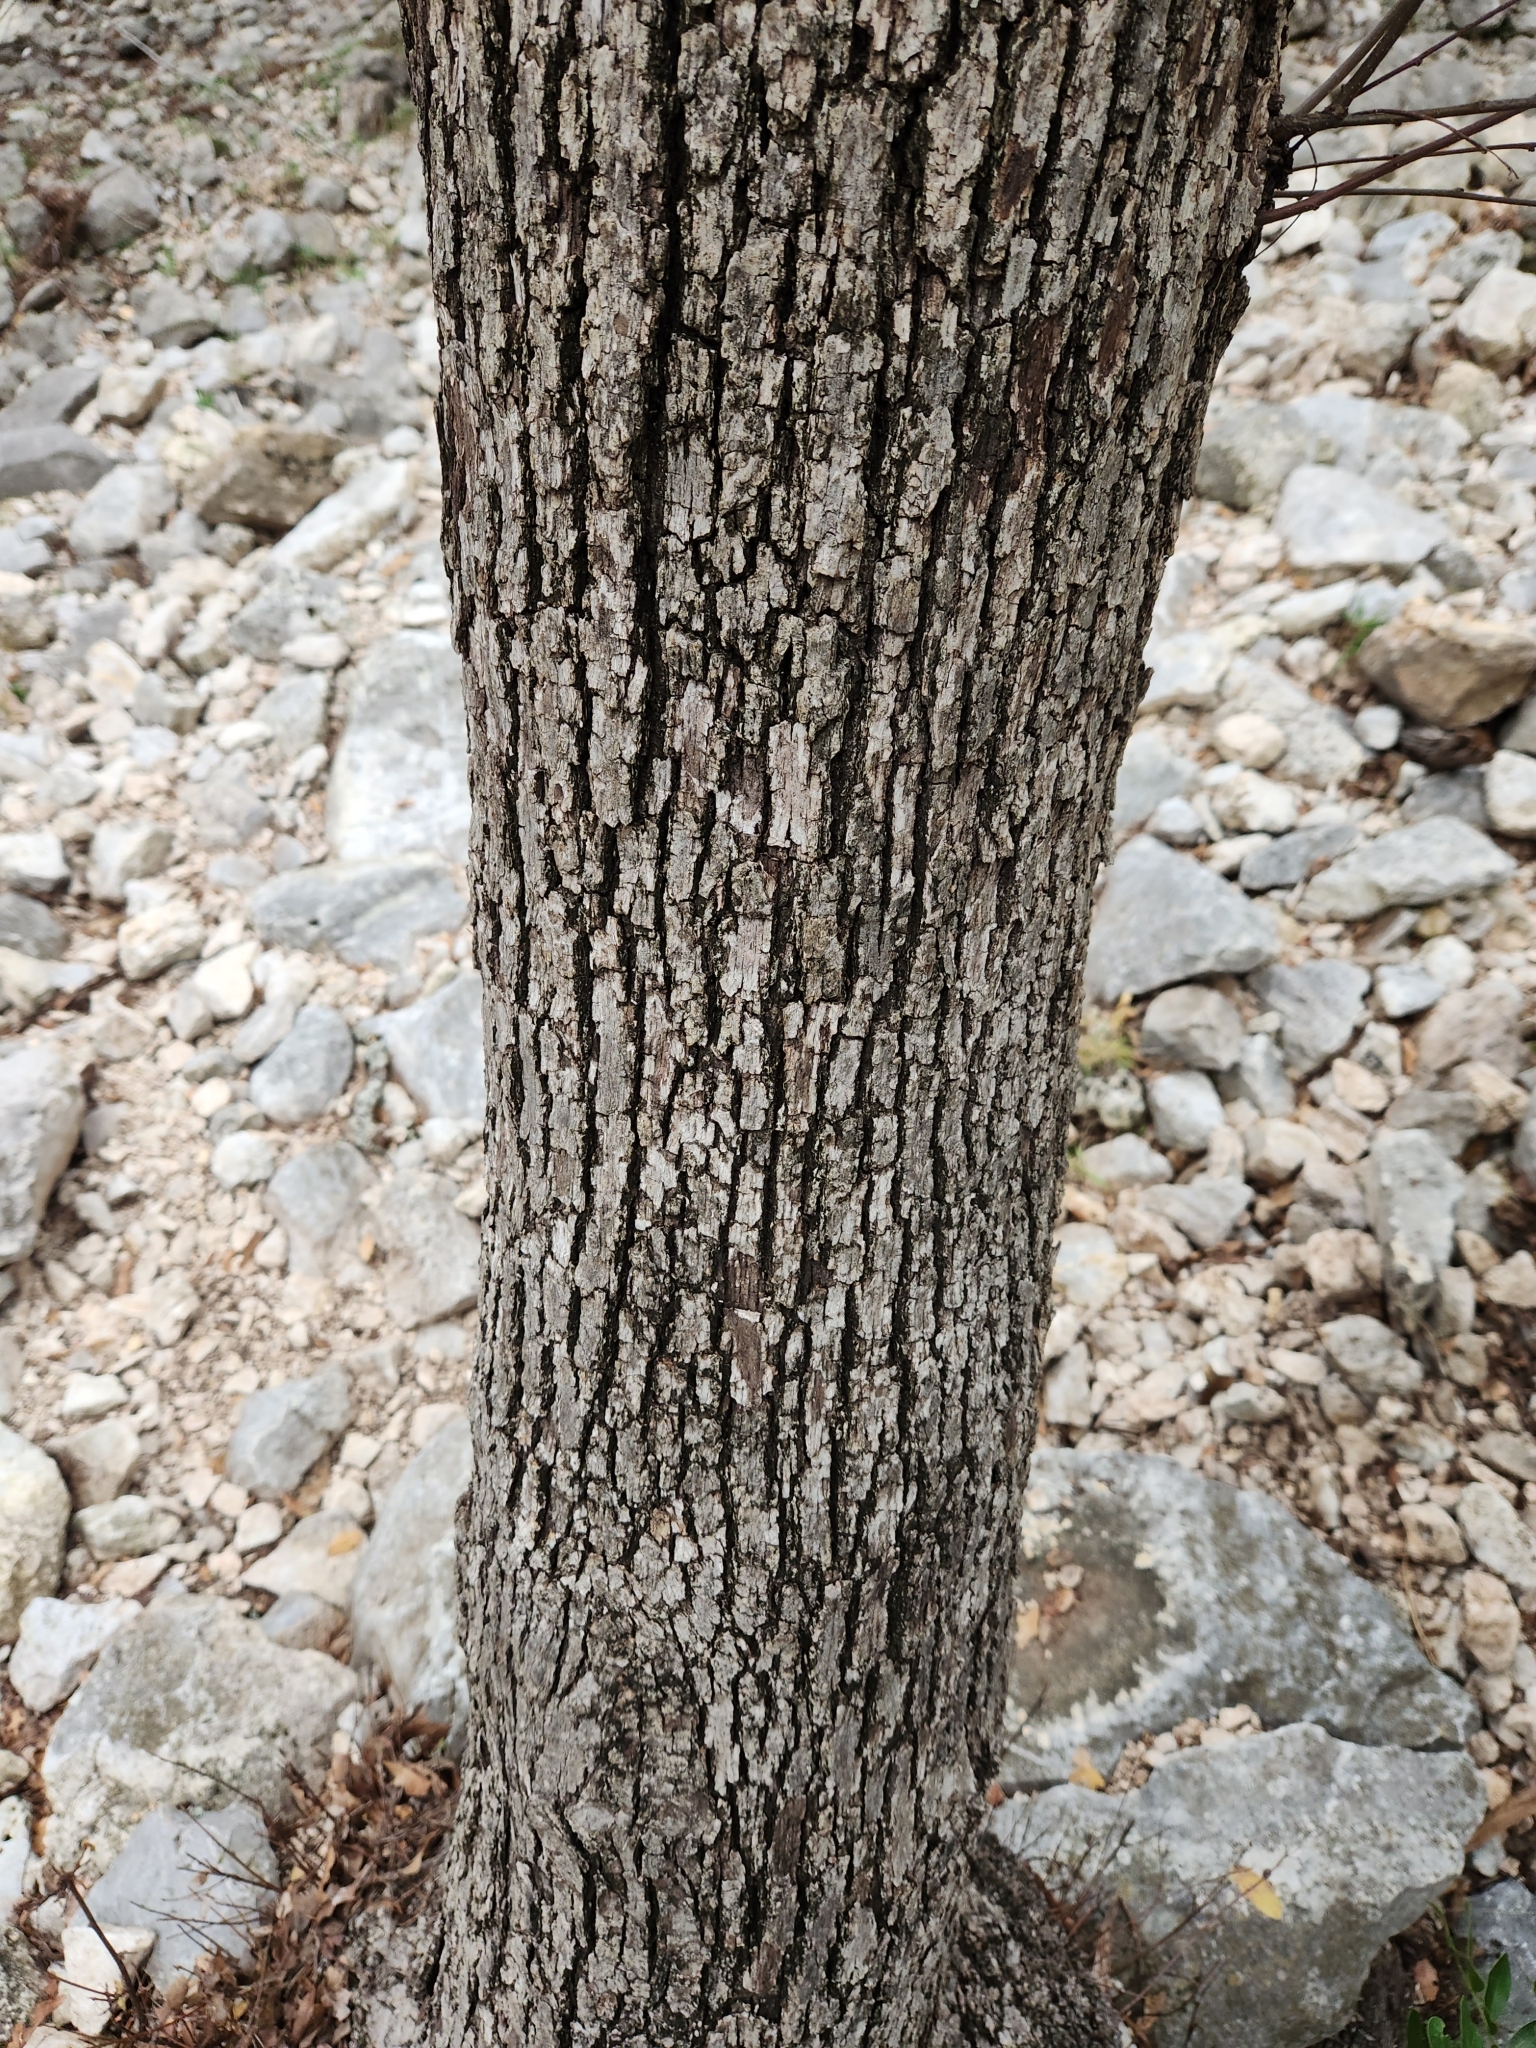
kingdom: Plantae
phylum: Tracheophyta
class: Magnoliopsida
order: Fagales
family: Fagaceae
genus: Quercus
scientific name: Quercus laceyi
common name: Lacey oak
